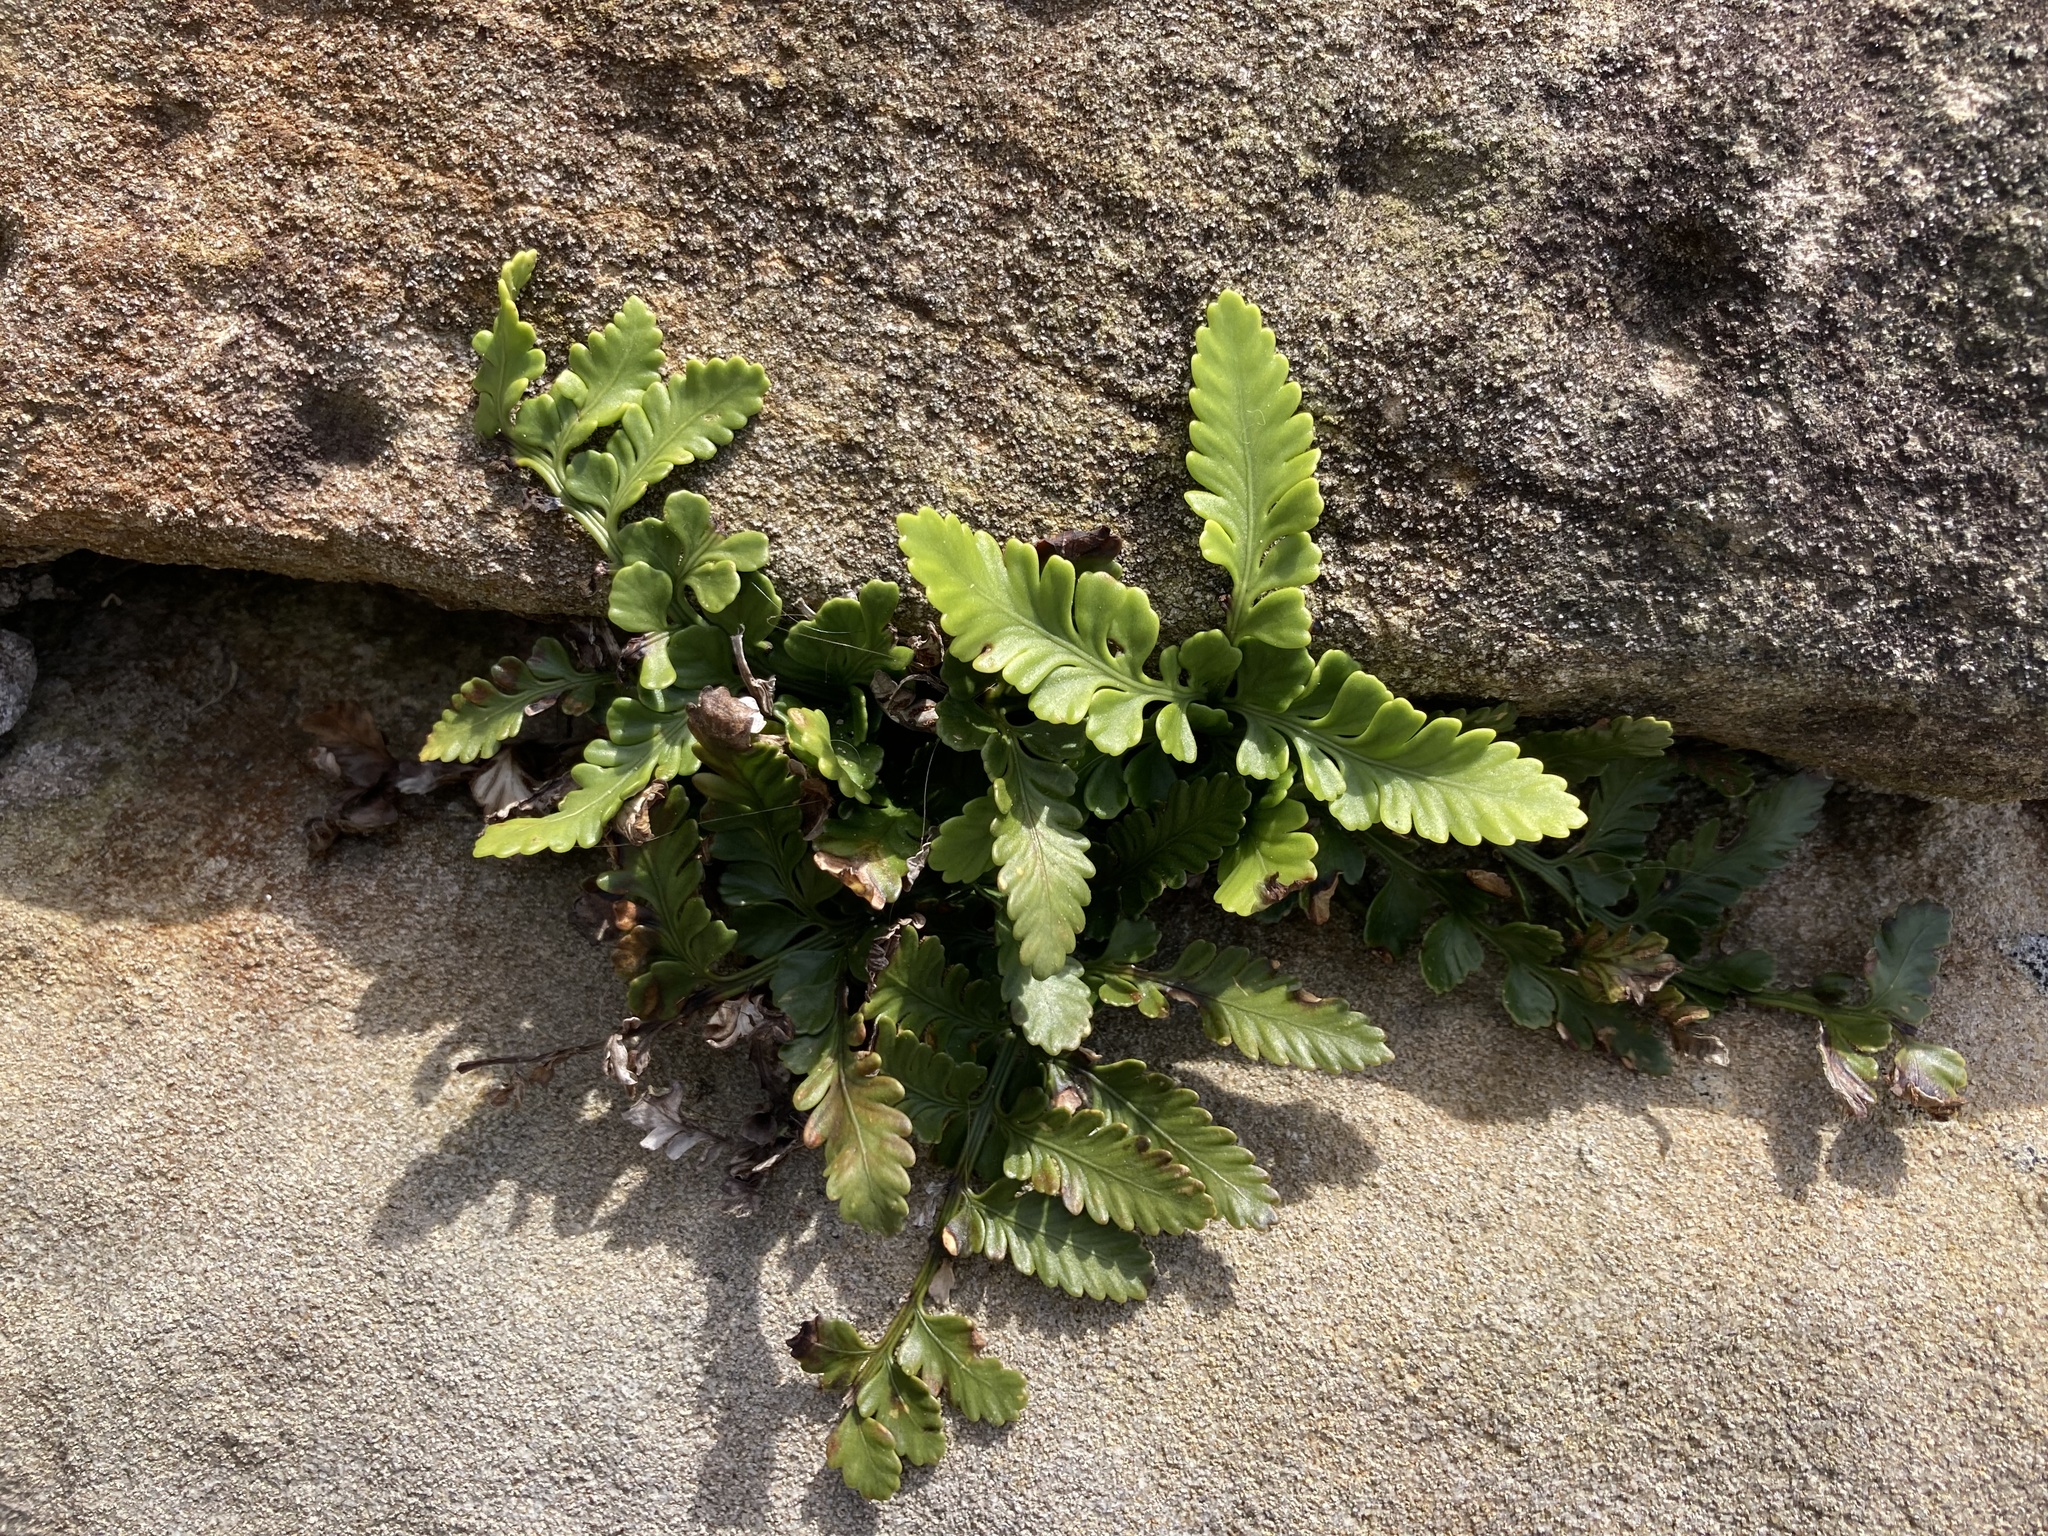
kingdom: Plantae
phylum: Tracheophyta
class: Polypodiopsida
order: Polypodiales
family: Aspleniaceae
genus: Asplenium
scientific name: Asplenium difforme
